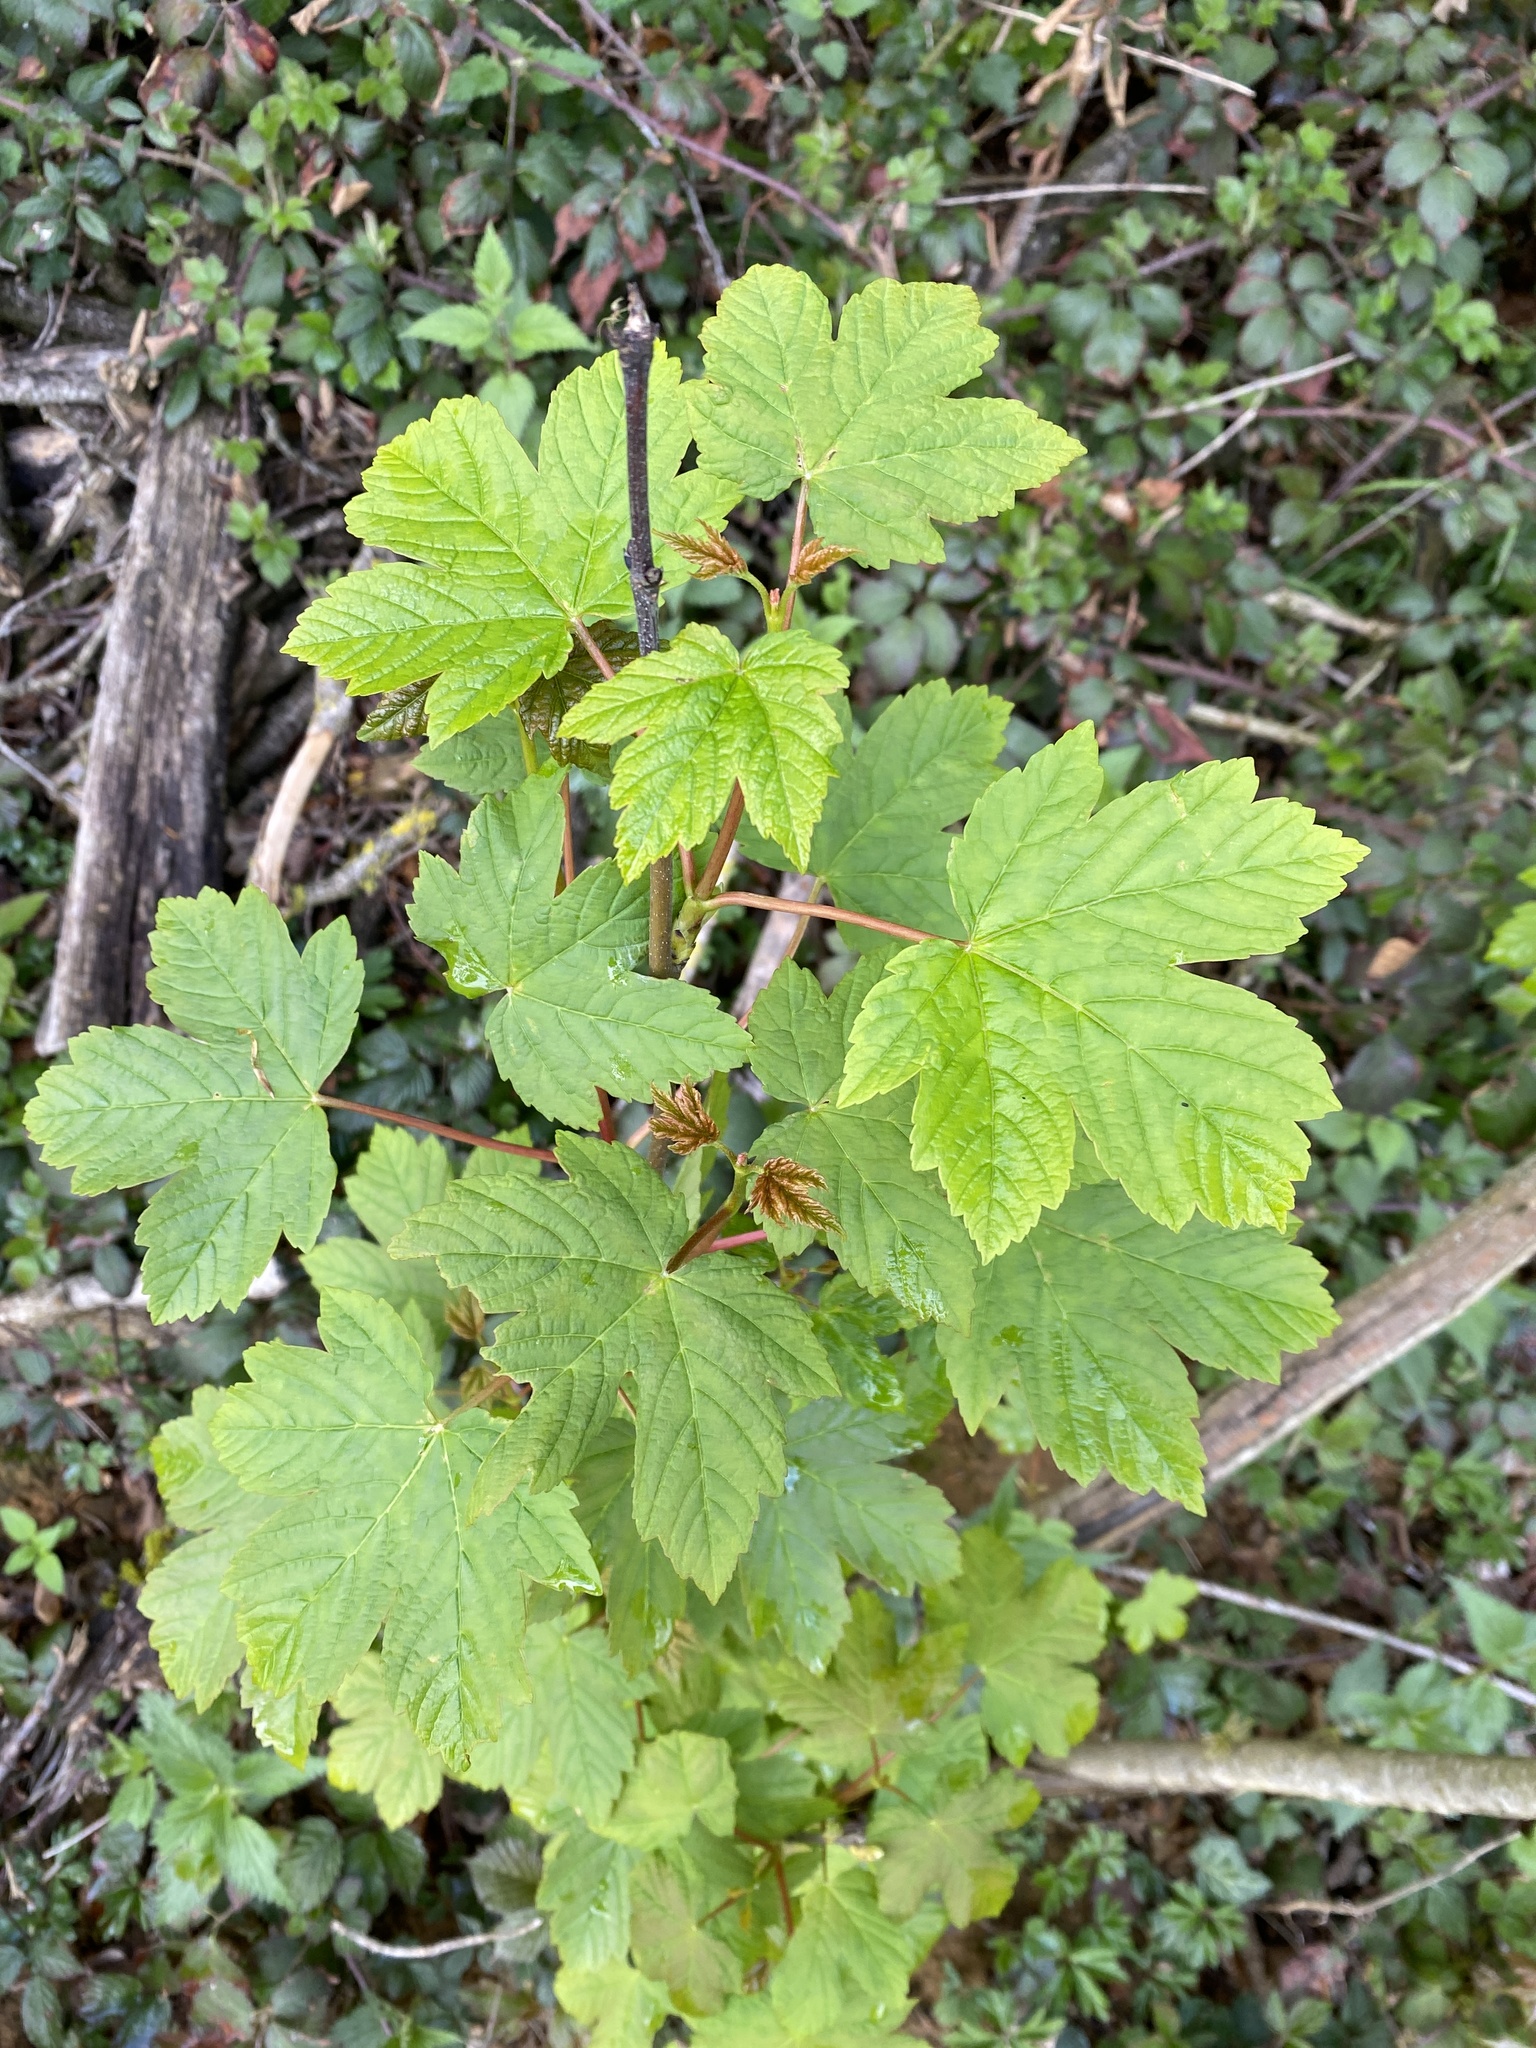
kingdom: Plantae
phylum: Tracheophyta
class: Magnoliopsida
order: Sapindales
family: Sapindaceae
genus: Acer
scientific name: Acer pseudoplatanus
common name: Sycamore
